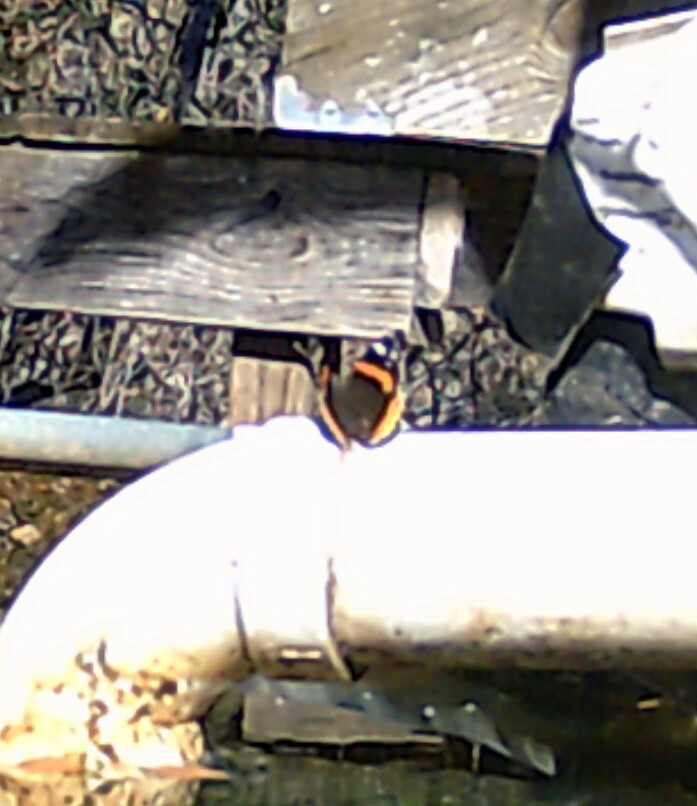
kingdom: Animalia
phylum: Arthropoda
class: Insecta
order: Lepidoptera
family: Nymphalidae
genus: Vanessa
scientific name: Vanessa atalanta
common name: Red admiral
